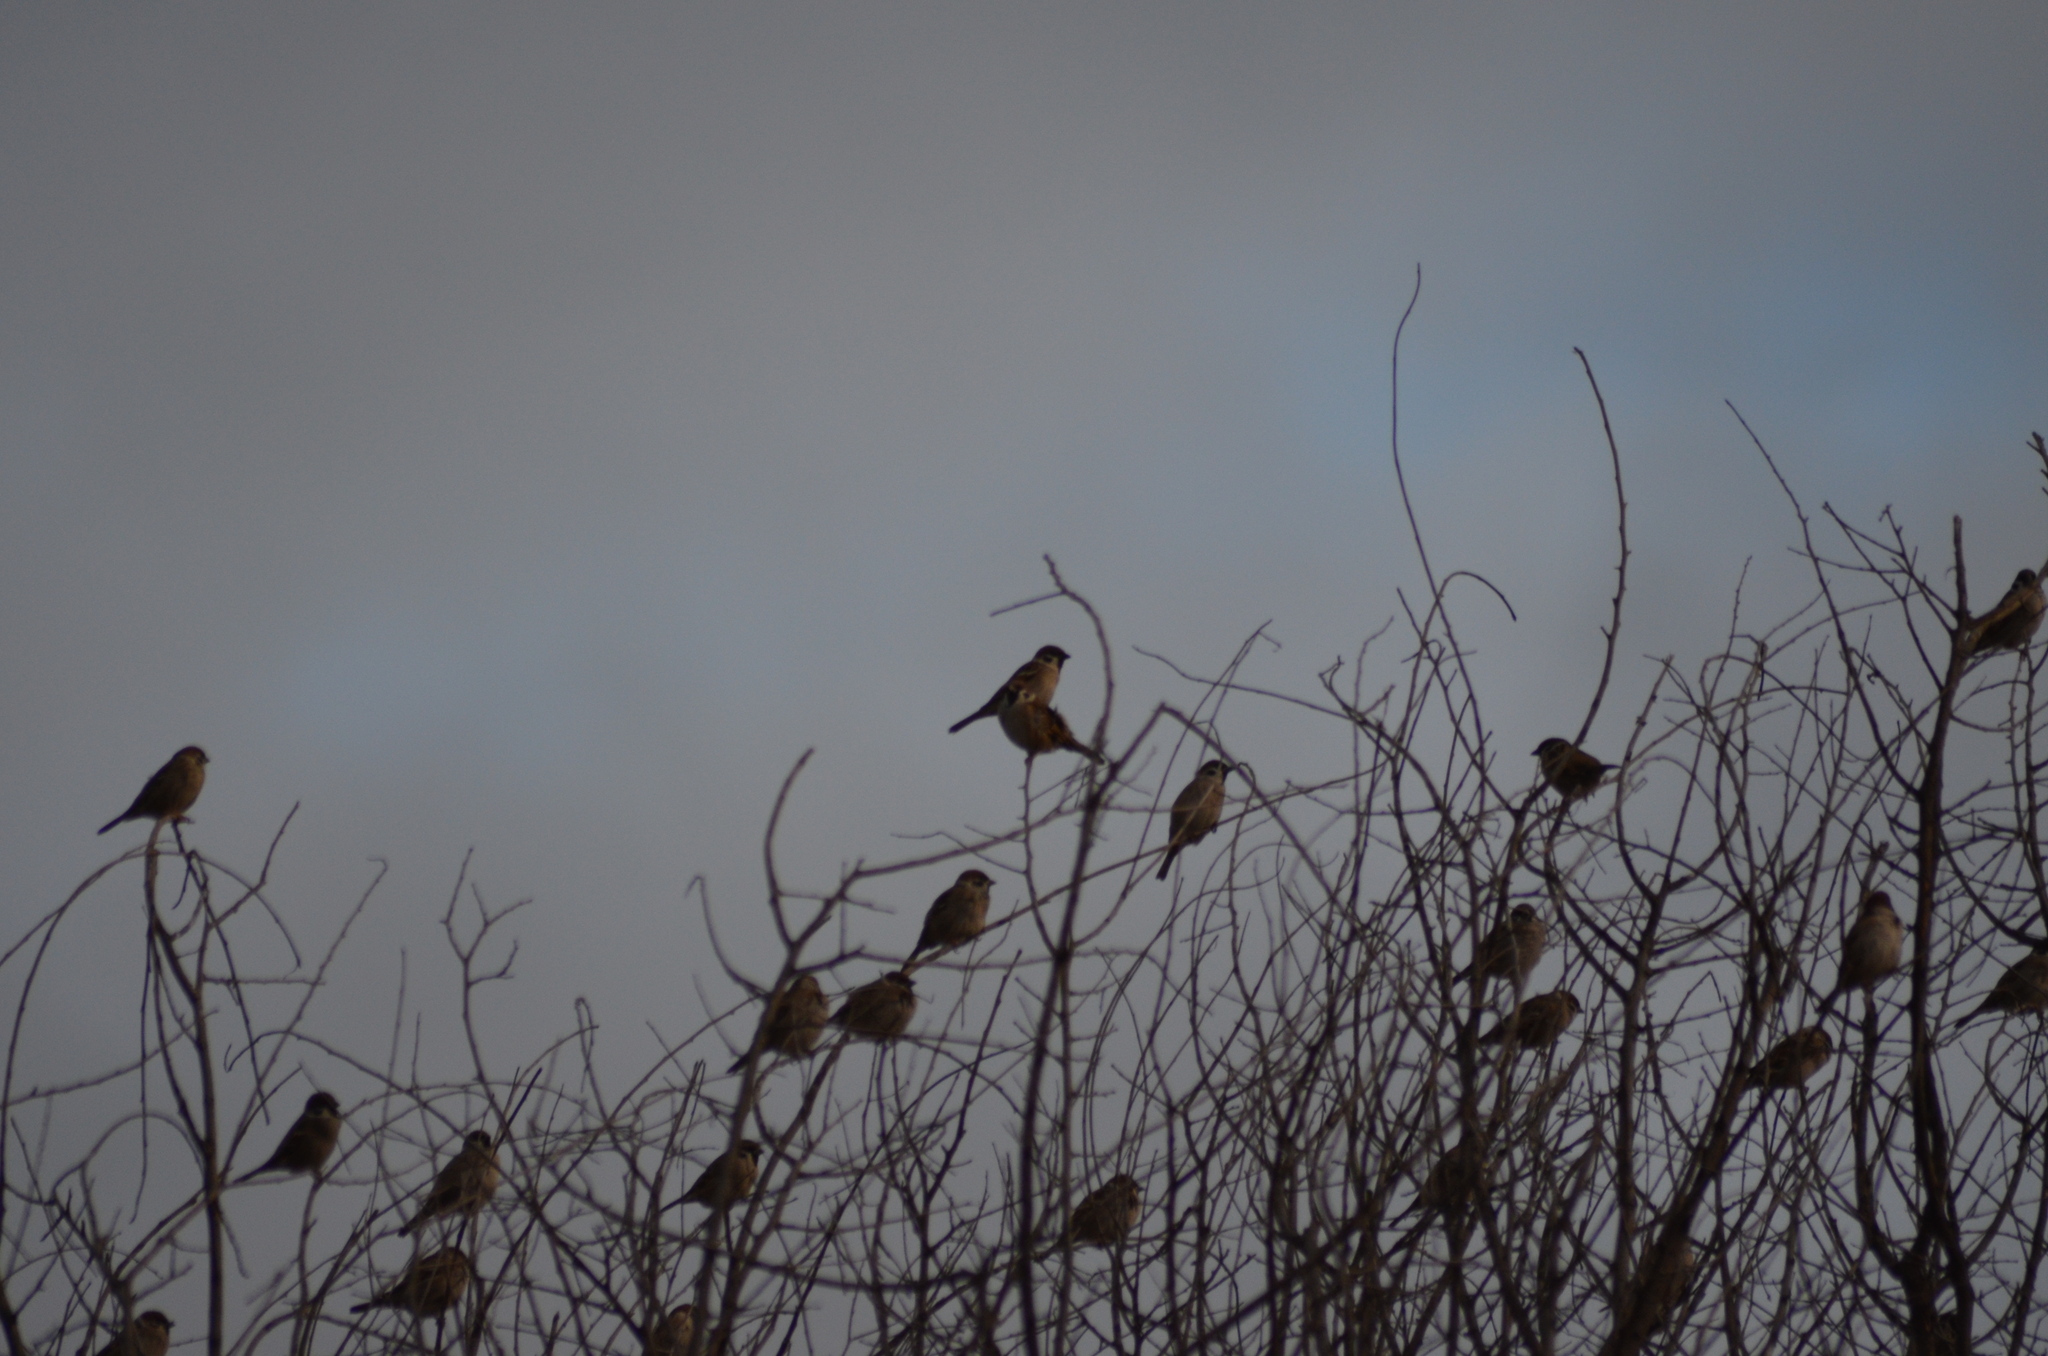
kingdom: Animalia
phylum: Chordata
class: Aves
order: Passeriformes
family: Passeridae
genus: Passer
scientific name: Passer montanus
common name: Eurasian tree sparrow
